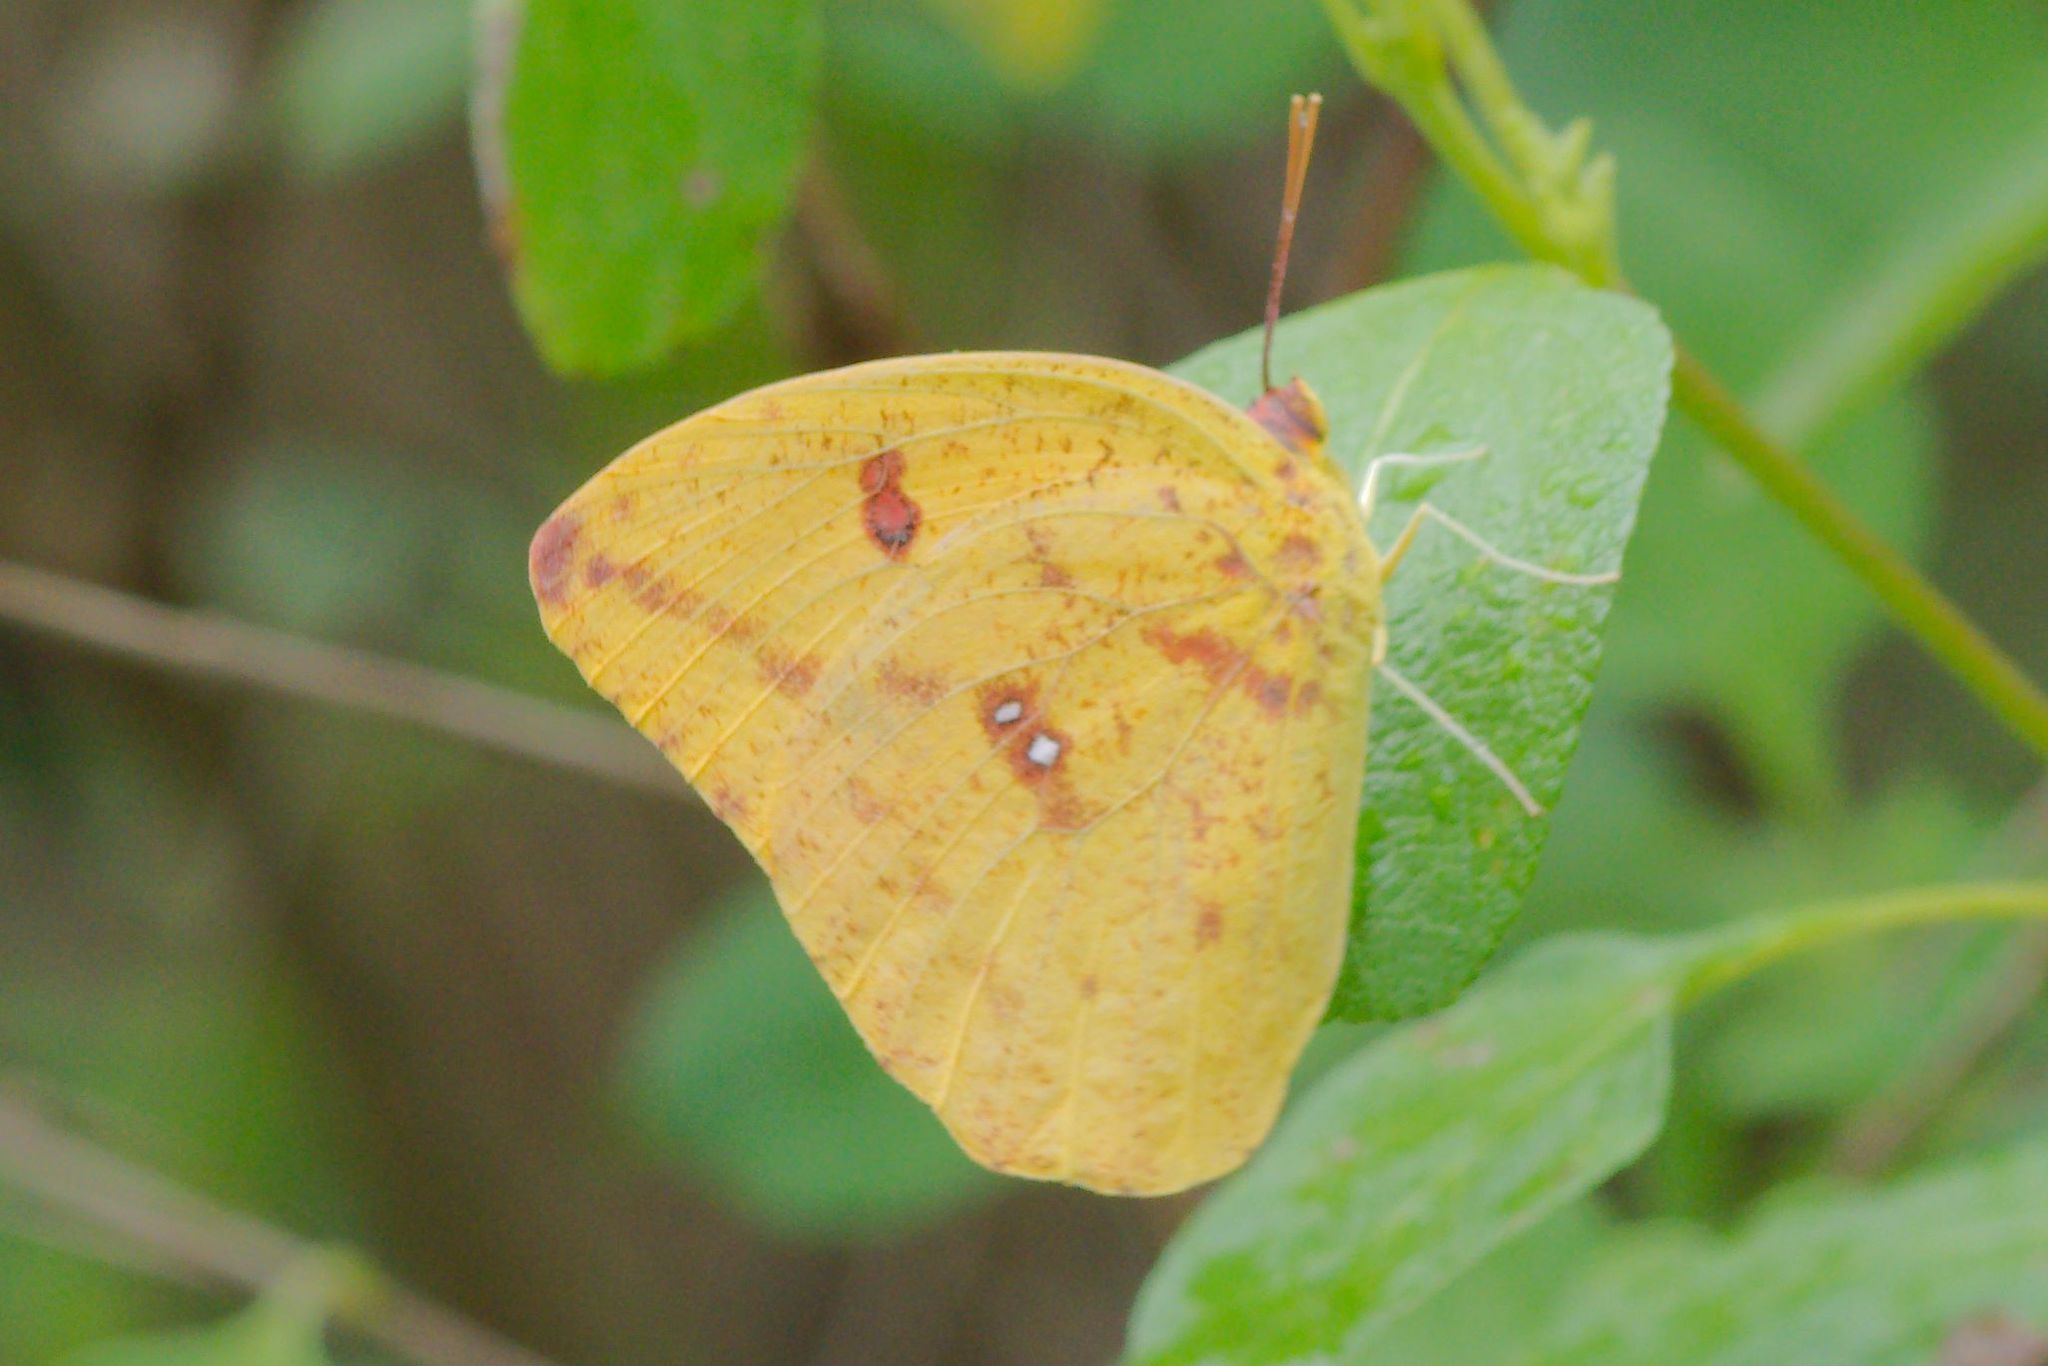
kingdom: Animalia
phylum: Arthropoda
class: Insecta
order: Lepidoptera
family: Pieridae
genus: Phoebis
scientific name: Phoebis agarithe
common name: Large orange sulphur
